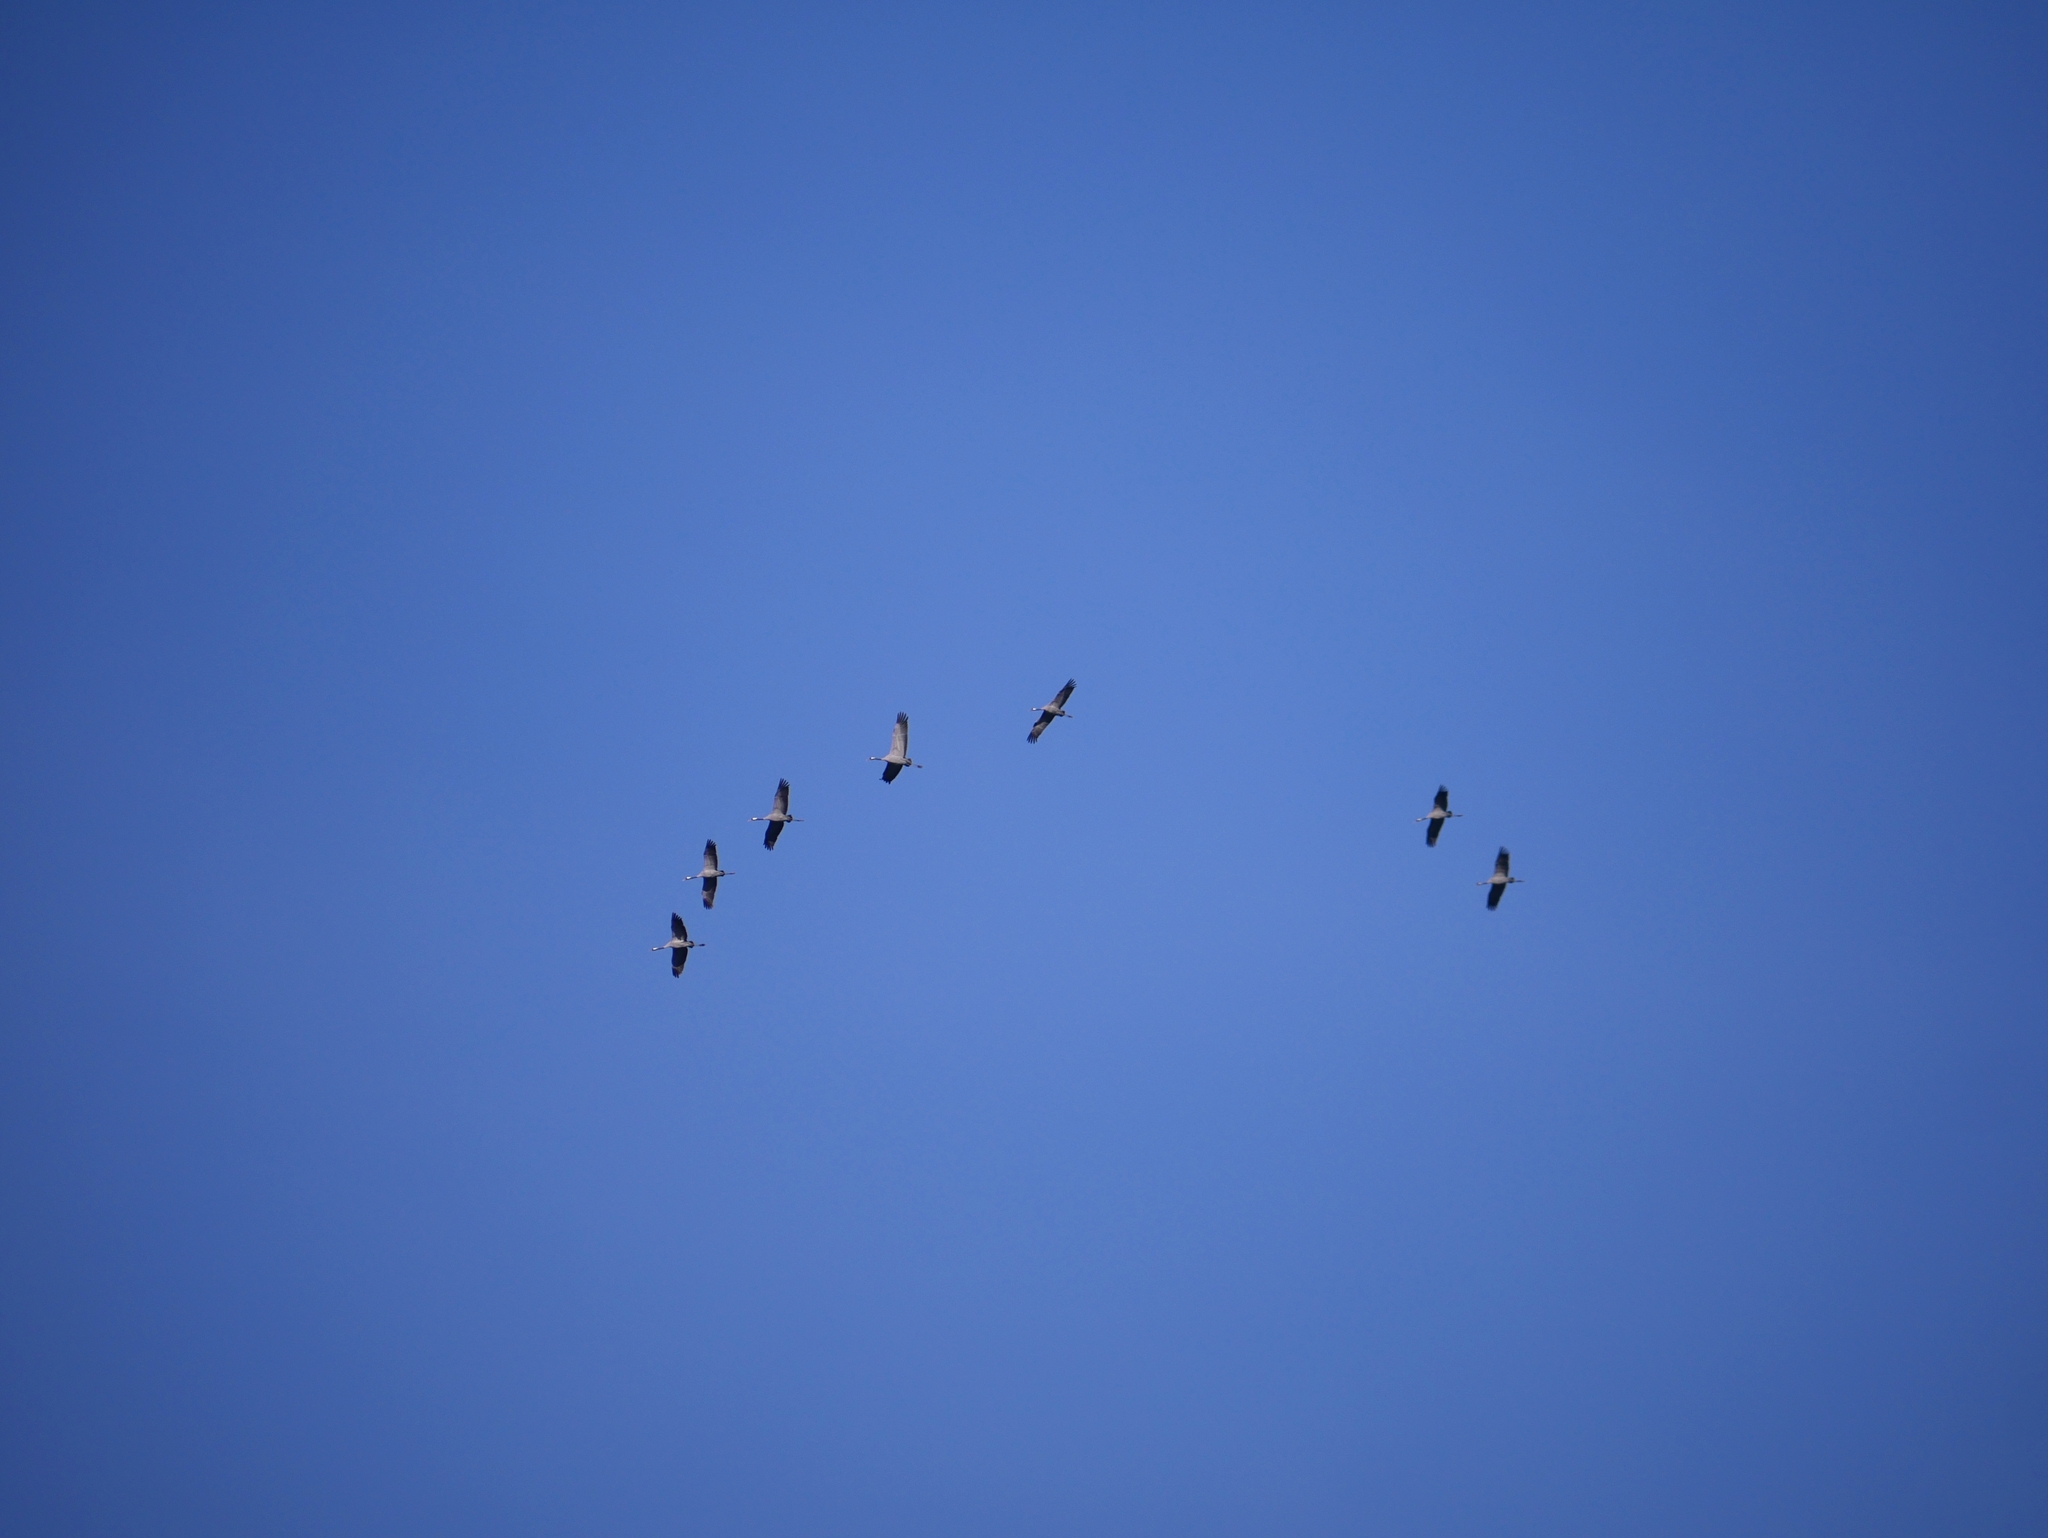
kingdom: Animalia
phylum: Chordata
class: Aves
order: Gruiformes
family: Gruidae
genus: Grus
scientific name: Grus grus
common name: Common crane
